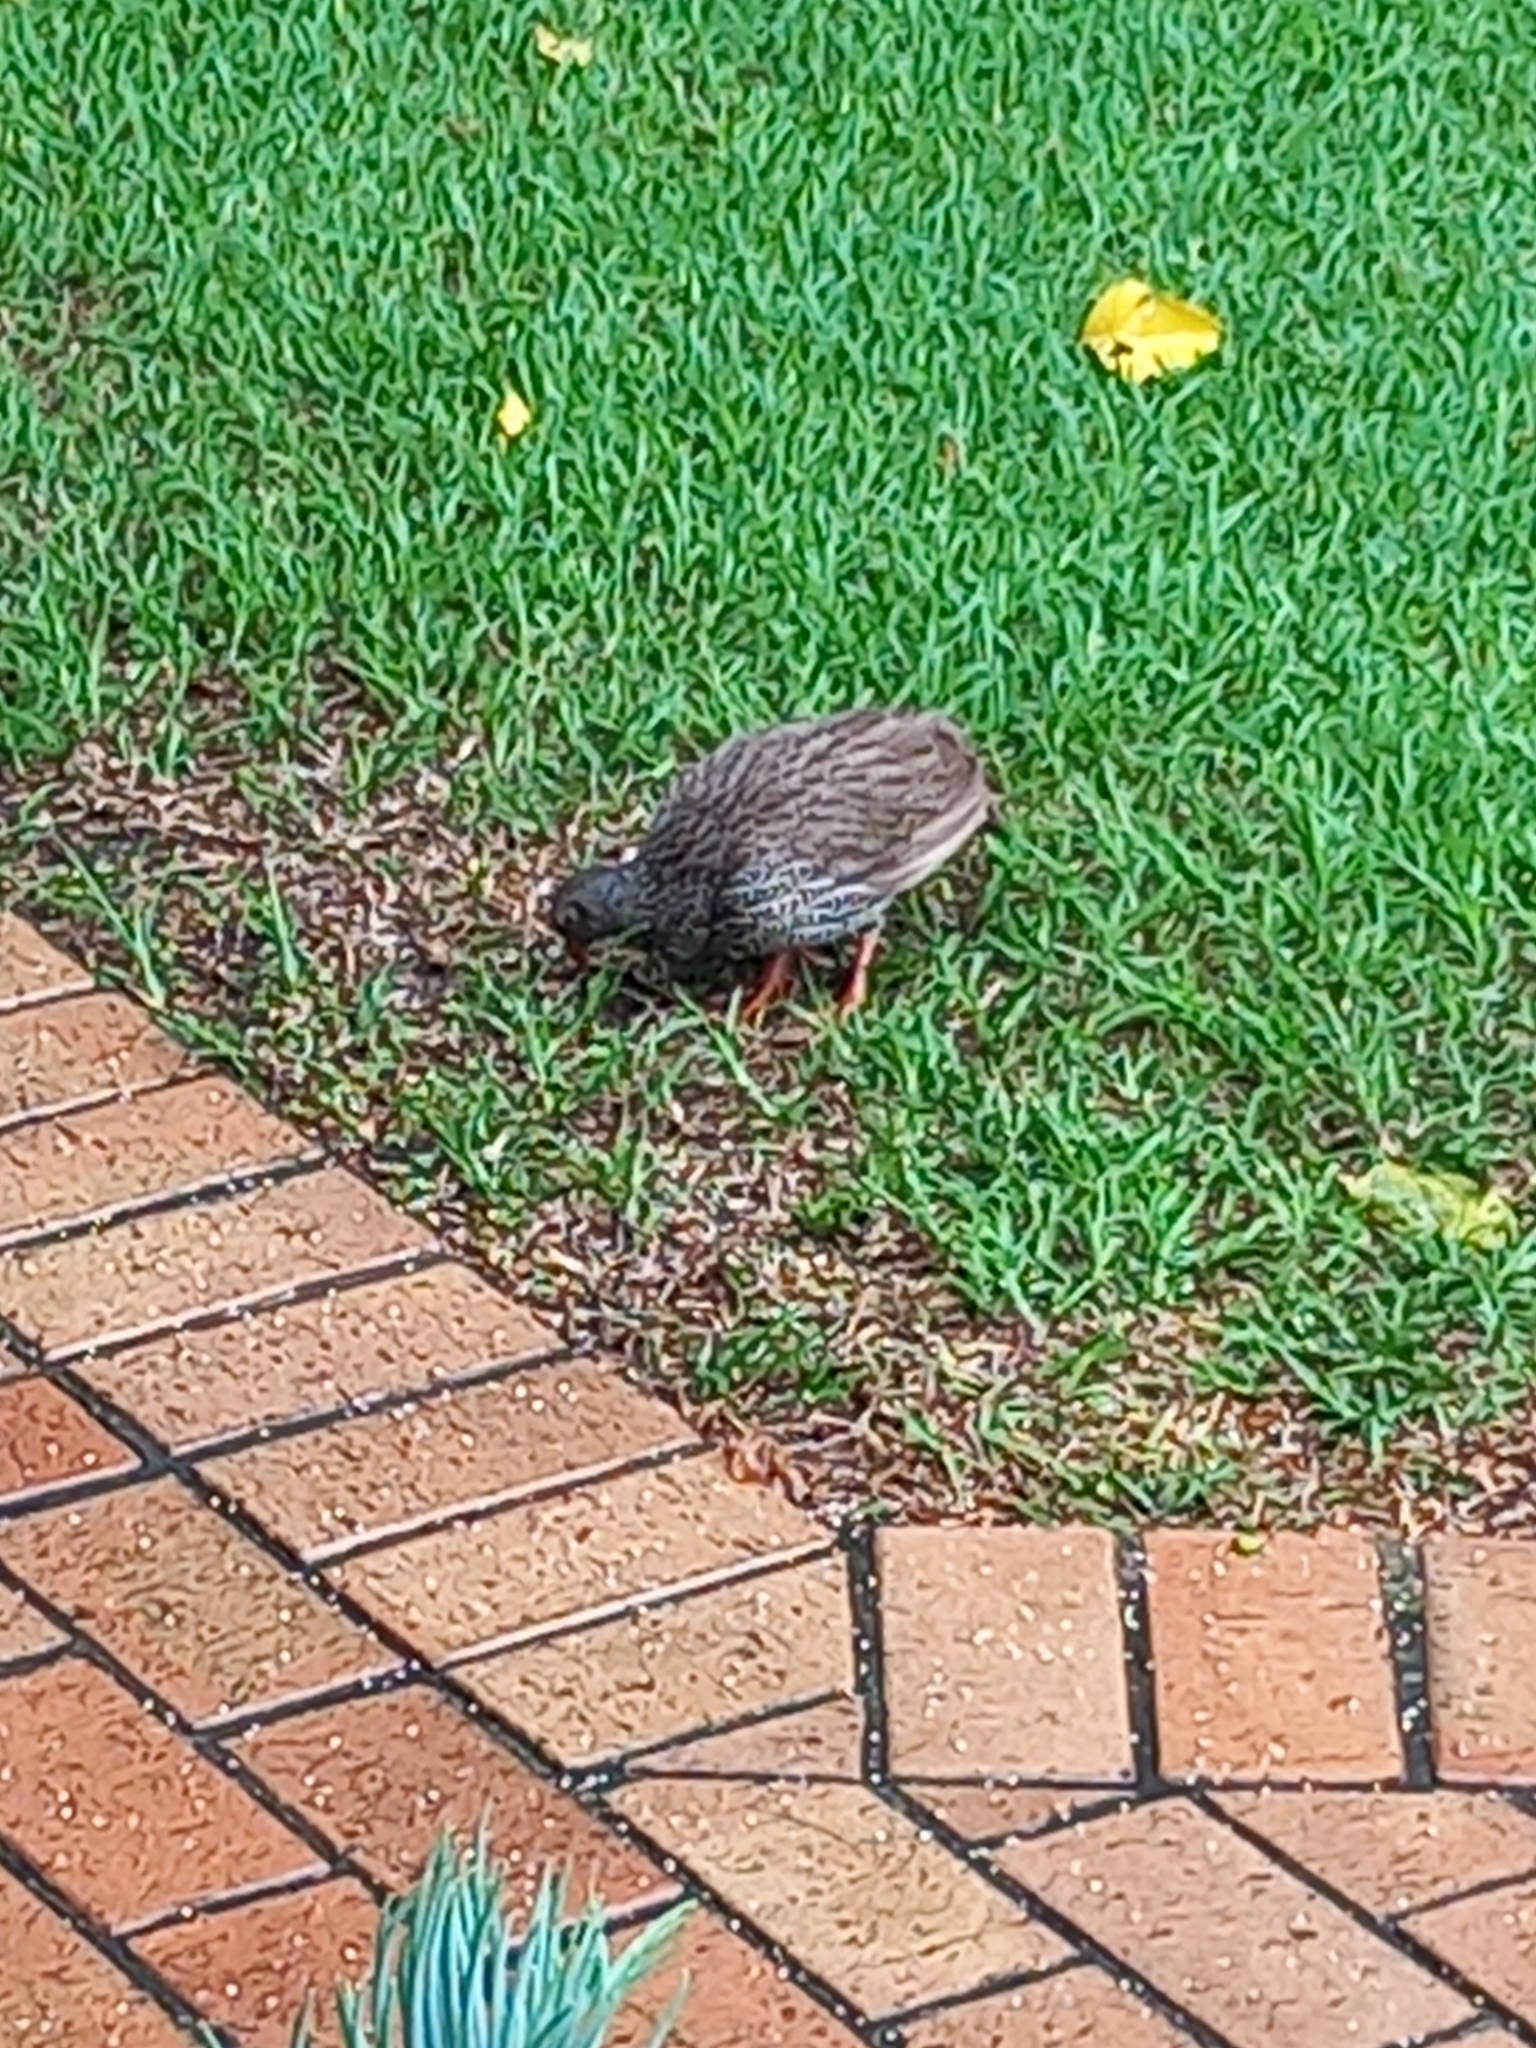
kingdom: Animalia
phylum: Chordata
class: Aves
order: Galliformes
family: Phasianidae
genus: Pternistis
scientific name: Pternistis natalensis
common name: Natal spurfowl
